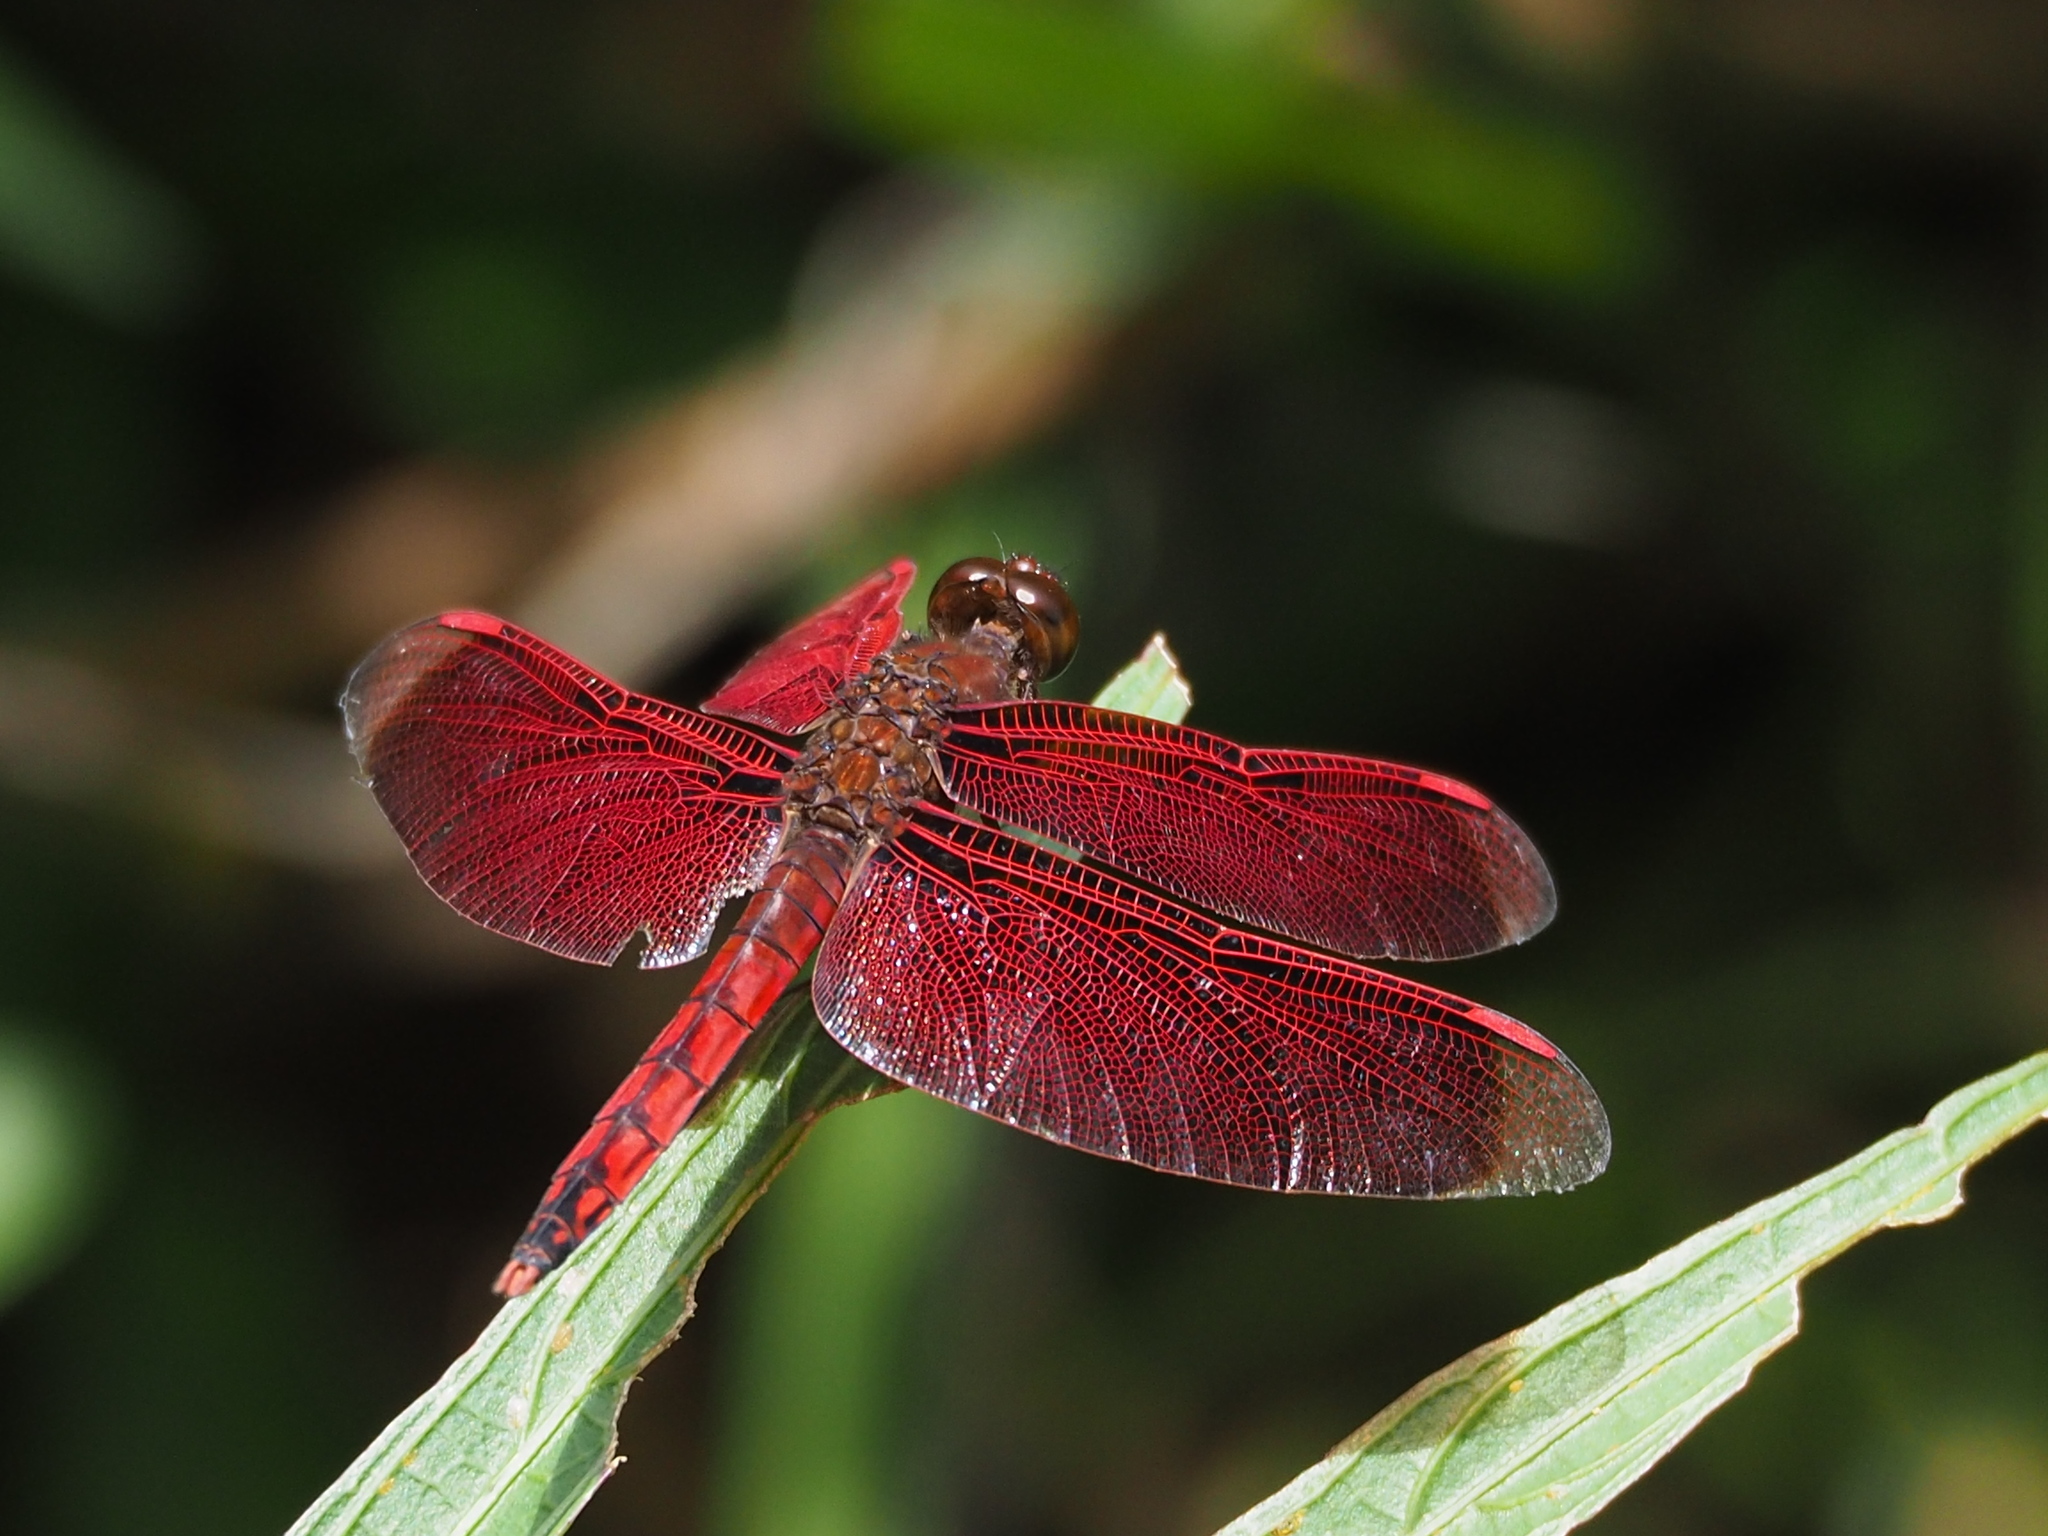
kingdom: Animalia
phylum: Arthropoda
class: Insecta
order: Odonata
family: Libellulidae
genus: Neurothemis
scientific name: Neurothemis taiwanensis
